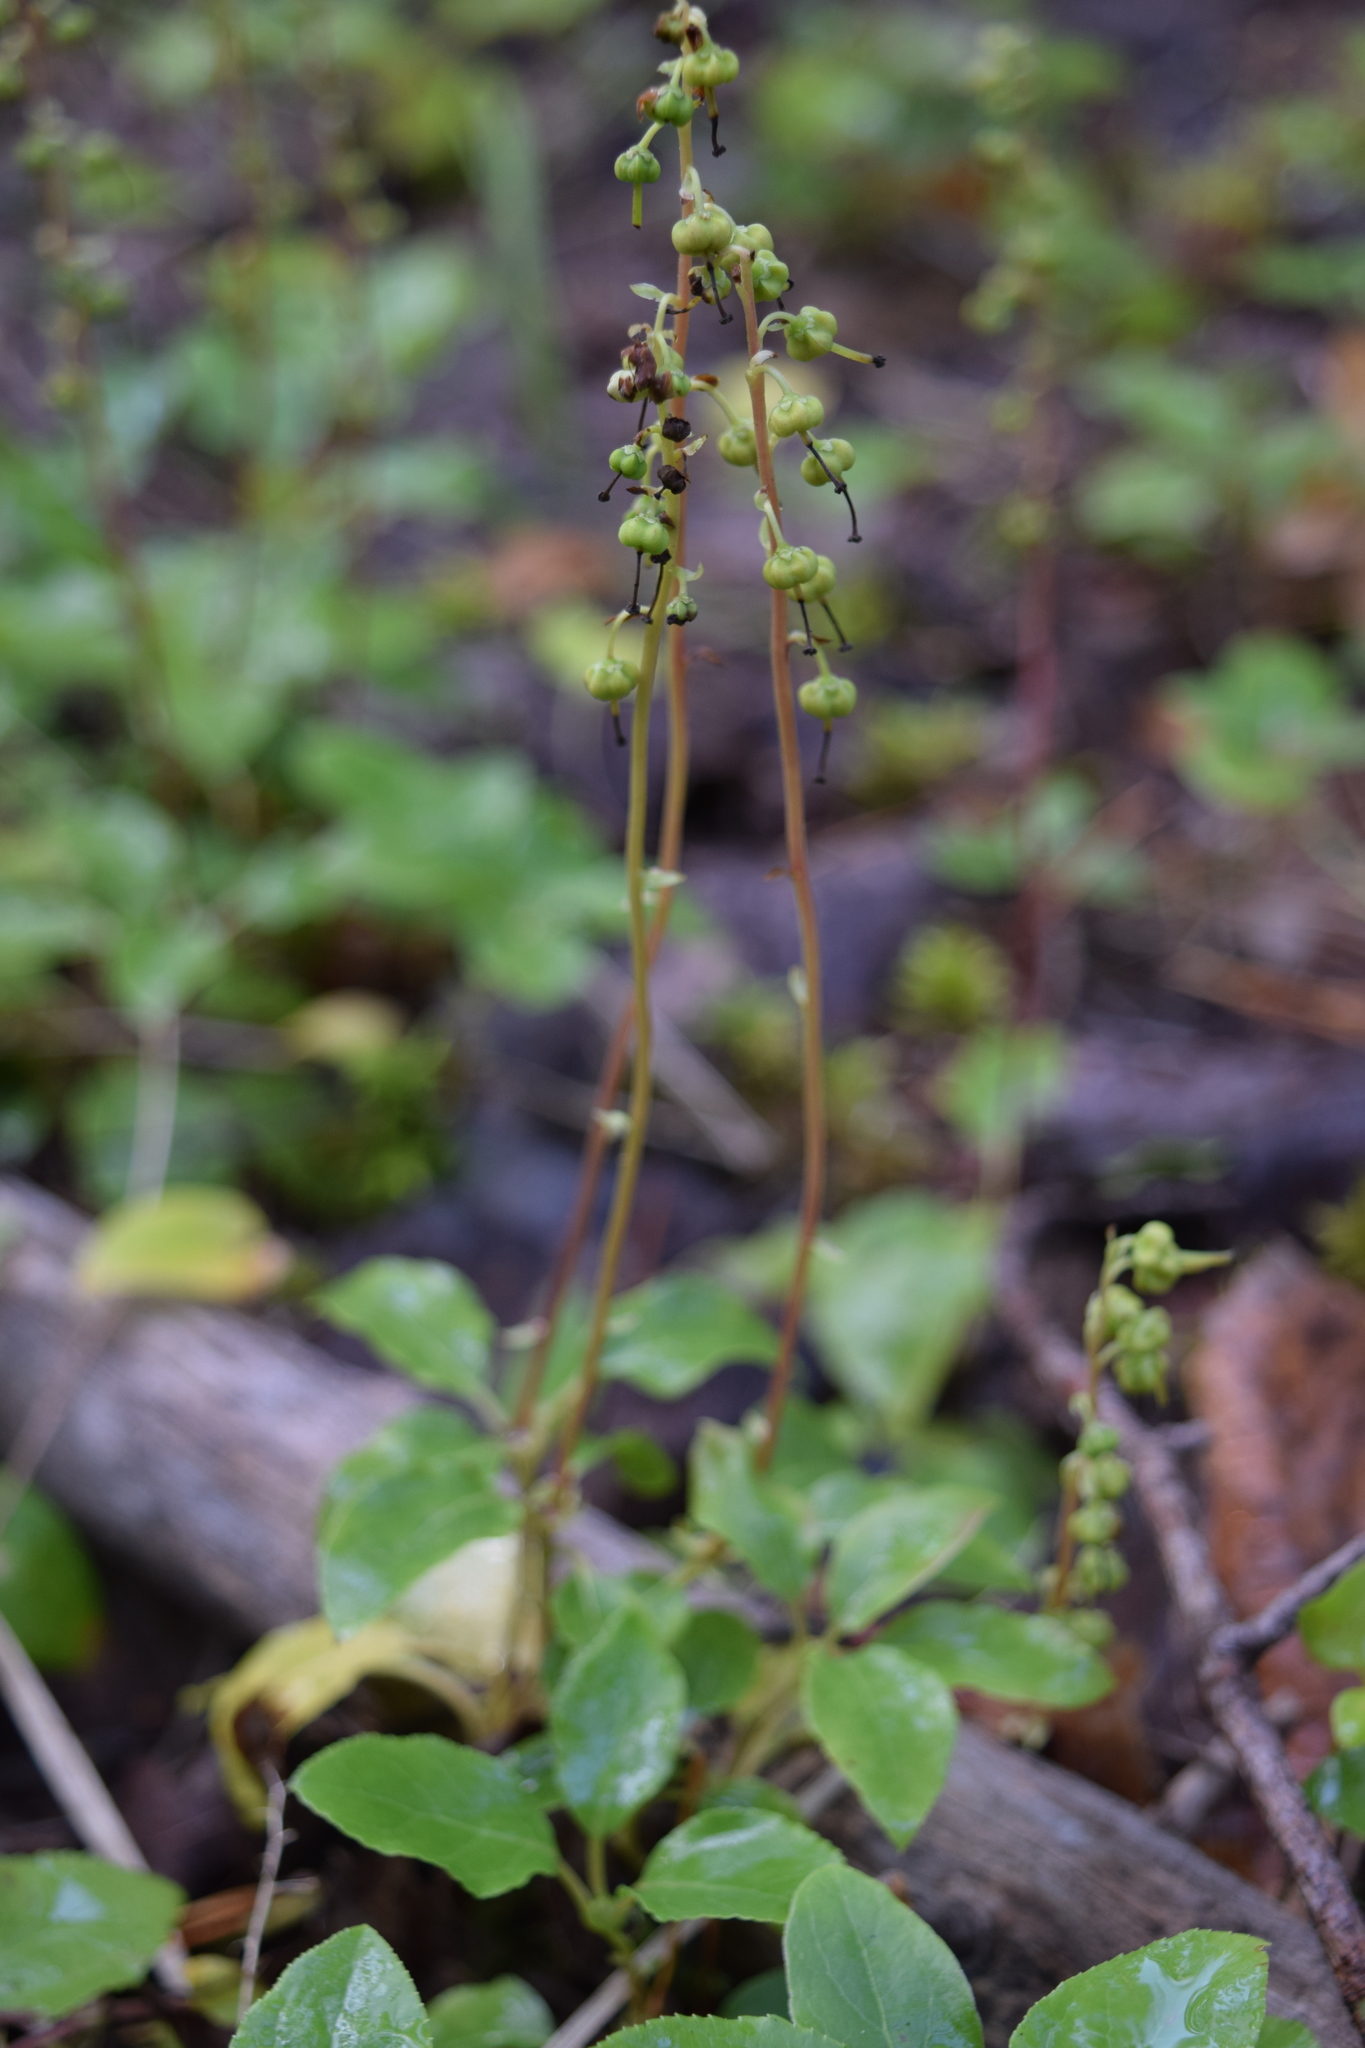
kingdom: Plantae
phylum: Tracheophyta
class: Magnoliopsida
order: Ericales
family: Ericaceae
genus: Orthilia
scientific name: Orthilia secunda
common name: One-sided orthilia
